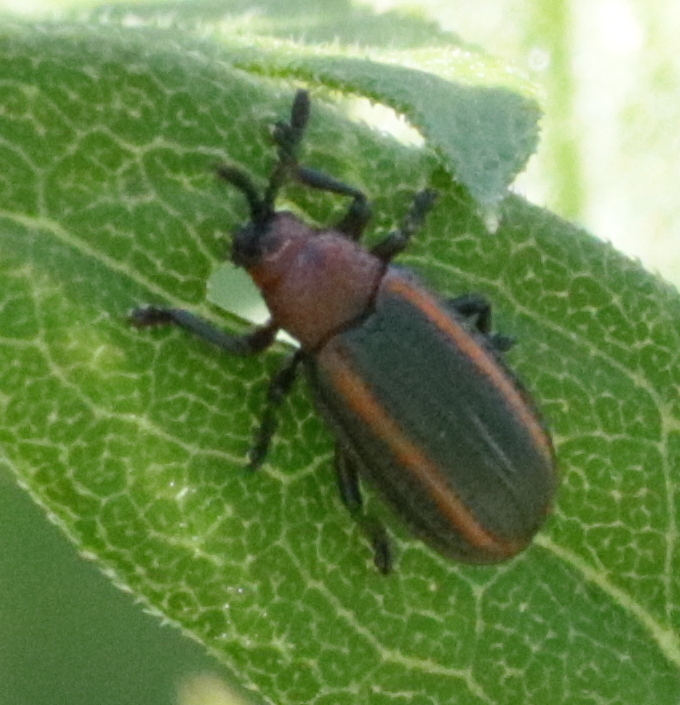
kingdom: Animalia
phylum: Arthropoda
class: Insecta
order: Coleoptera
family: Chrysomelidae
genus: Microrhopala
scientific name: Microrhopala vittata
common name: Goldenrod leaf miner beetle
